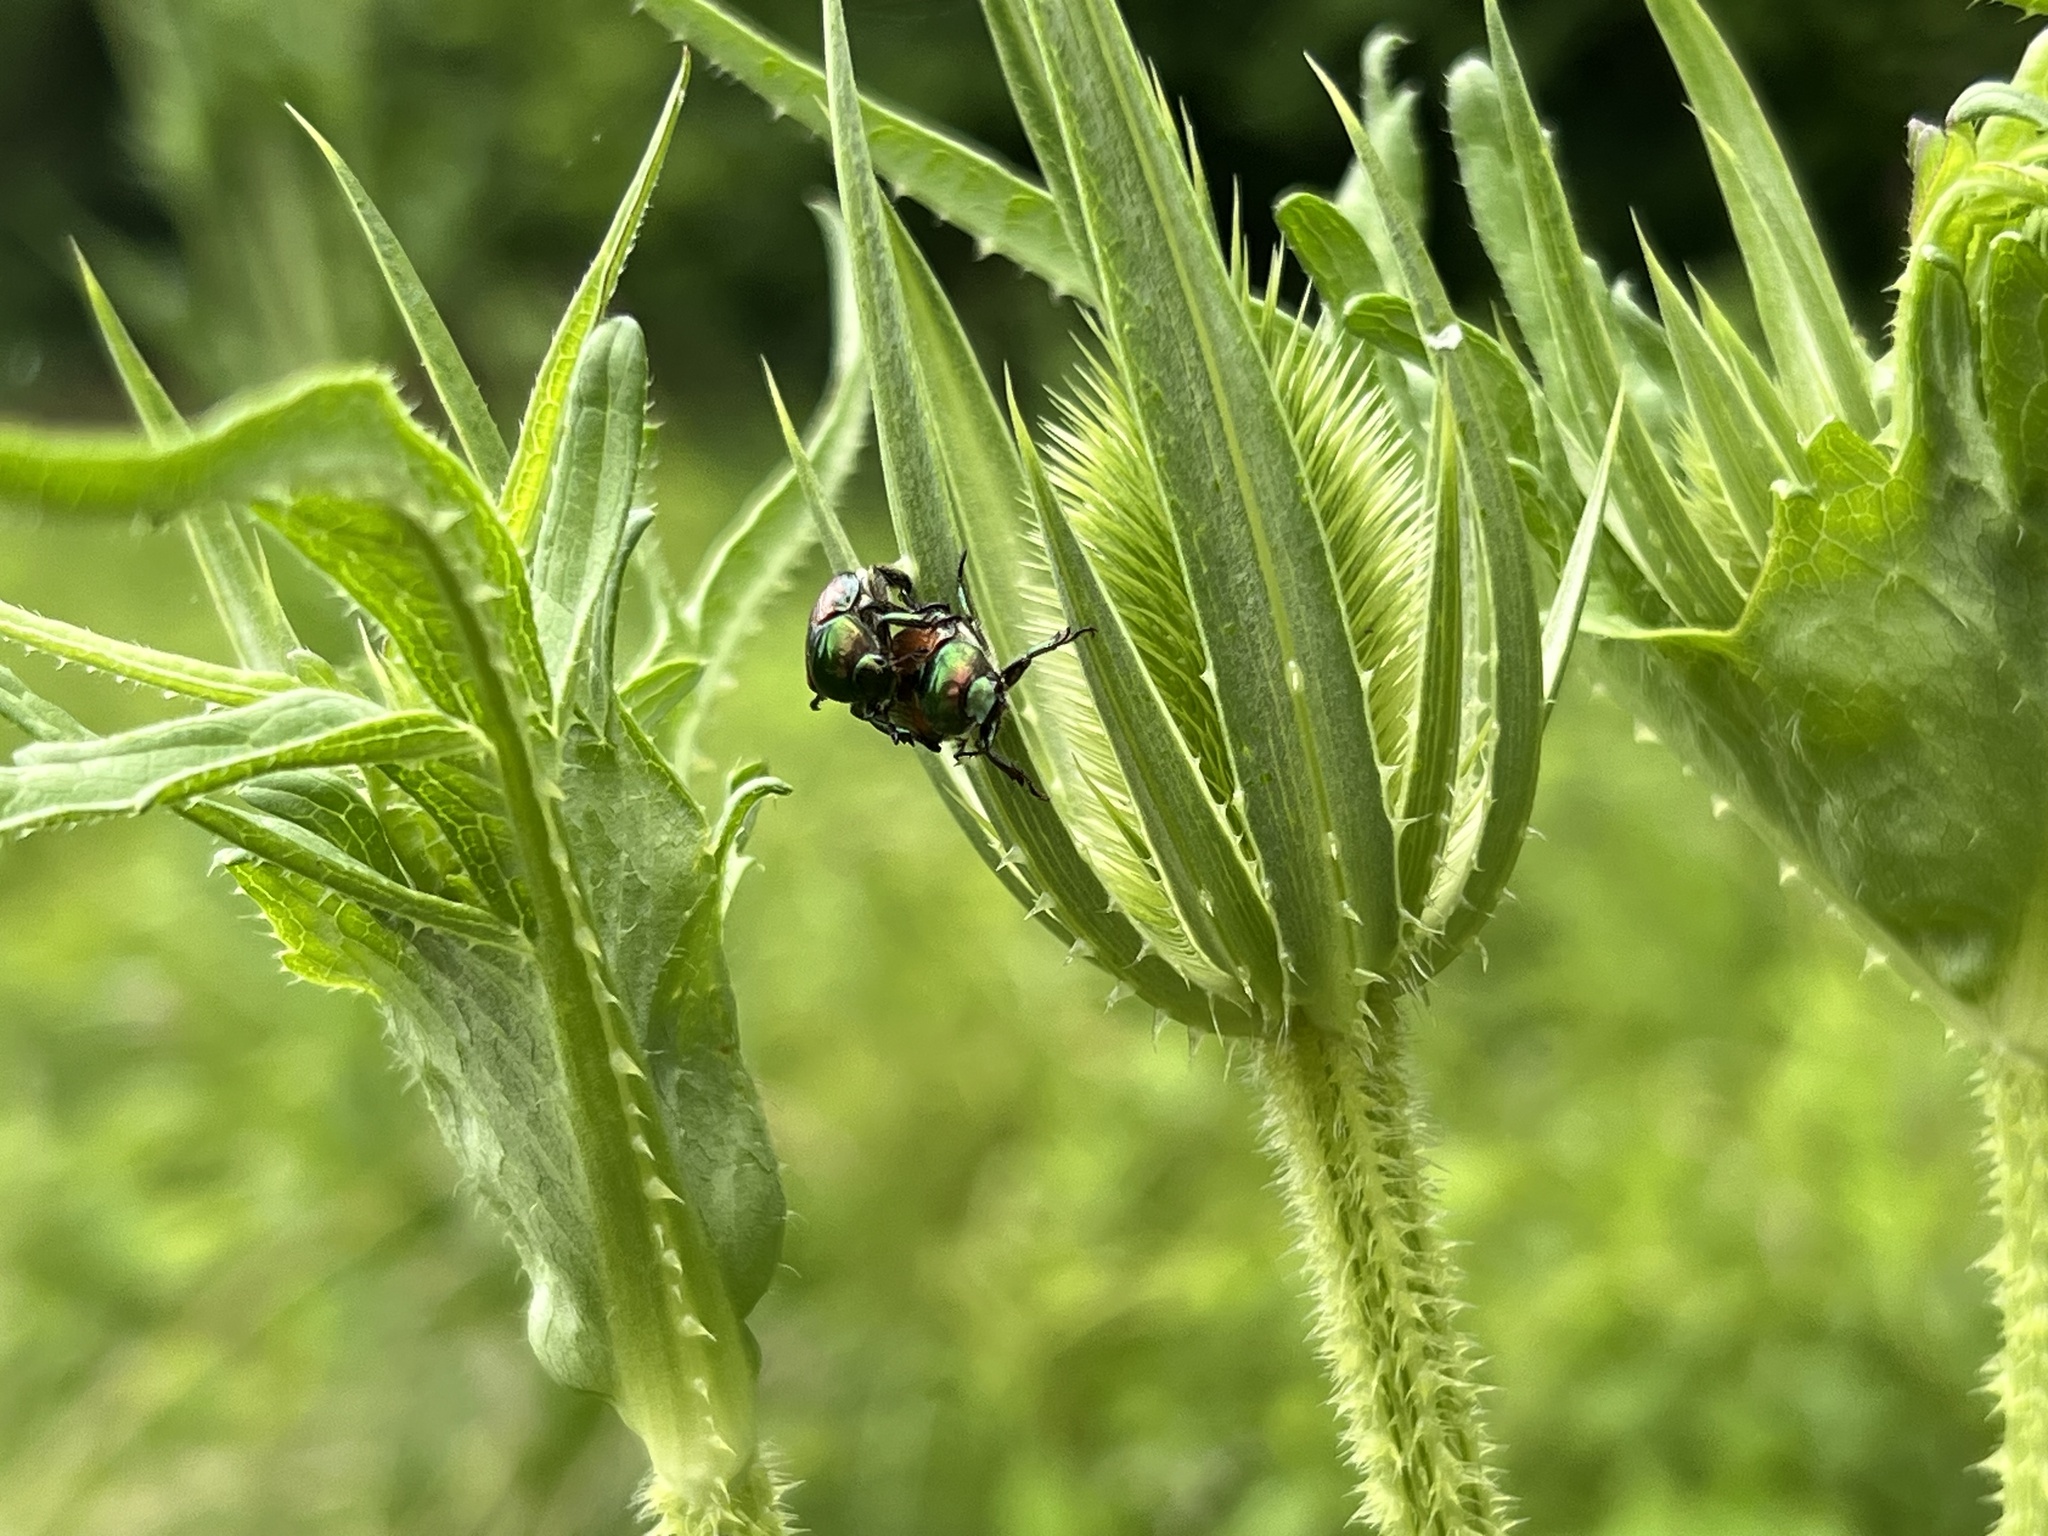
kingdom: Animalia
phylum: Arthropoda
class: Insecta
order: Coleoptera
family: Scarabaeidae
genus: Popillia
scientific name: Popillia japonica
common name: Japanese beetle
